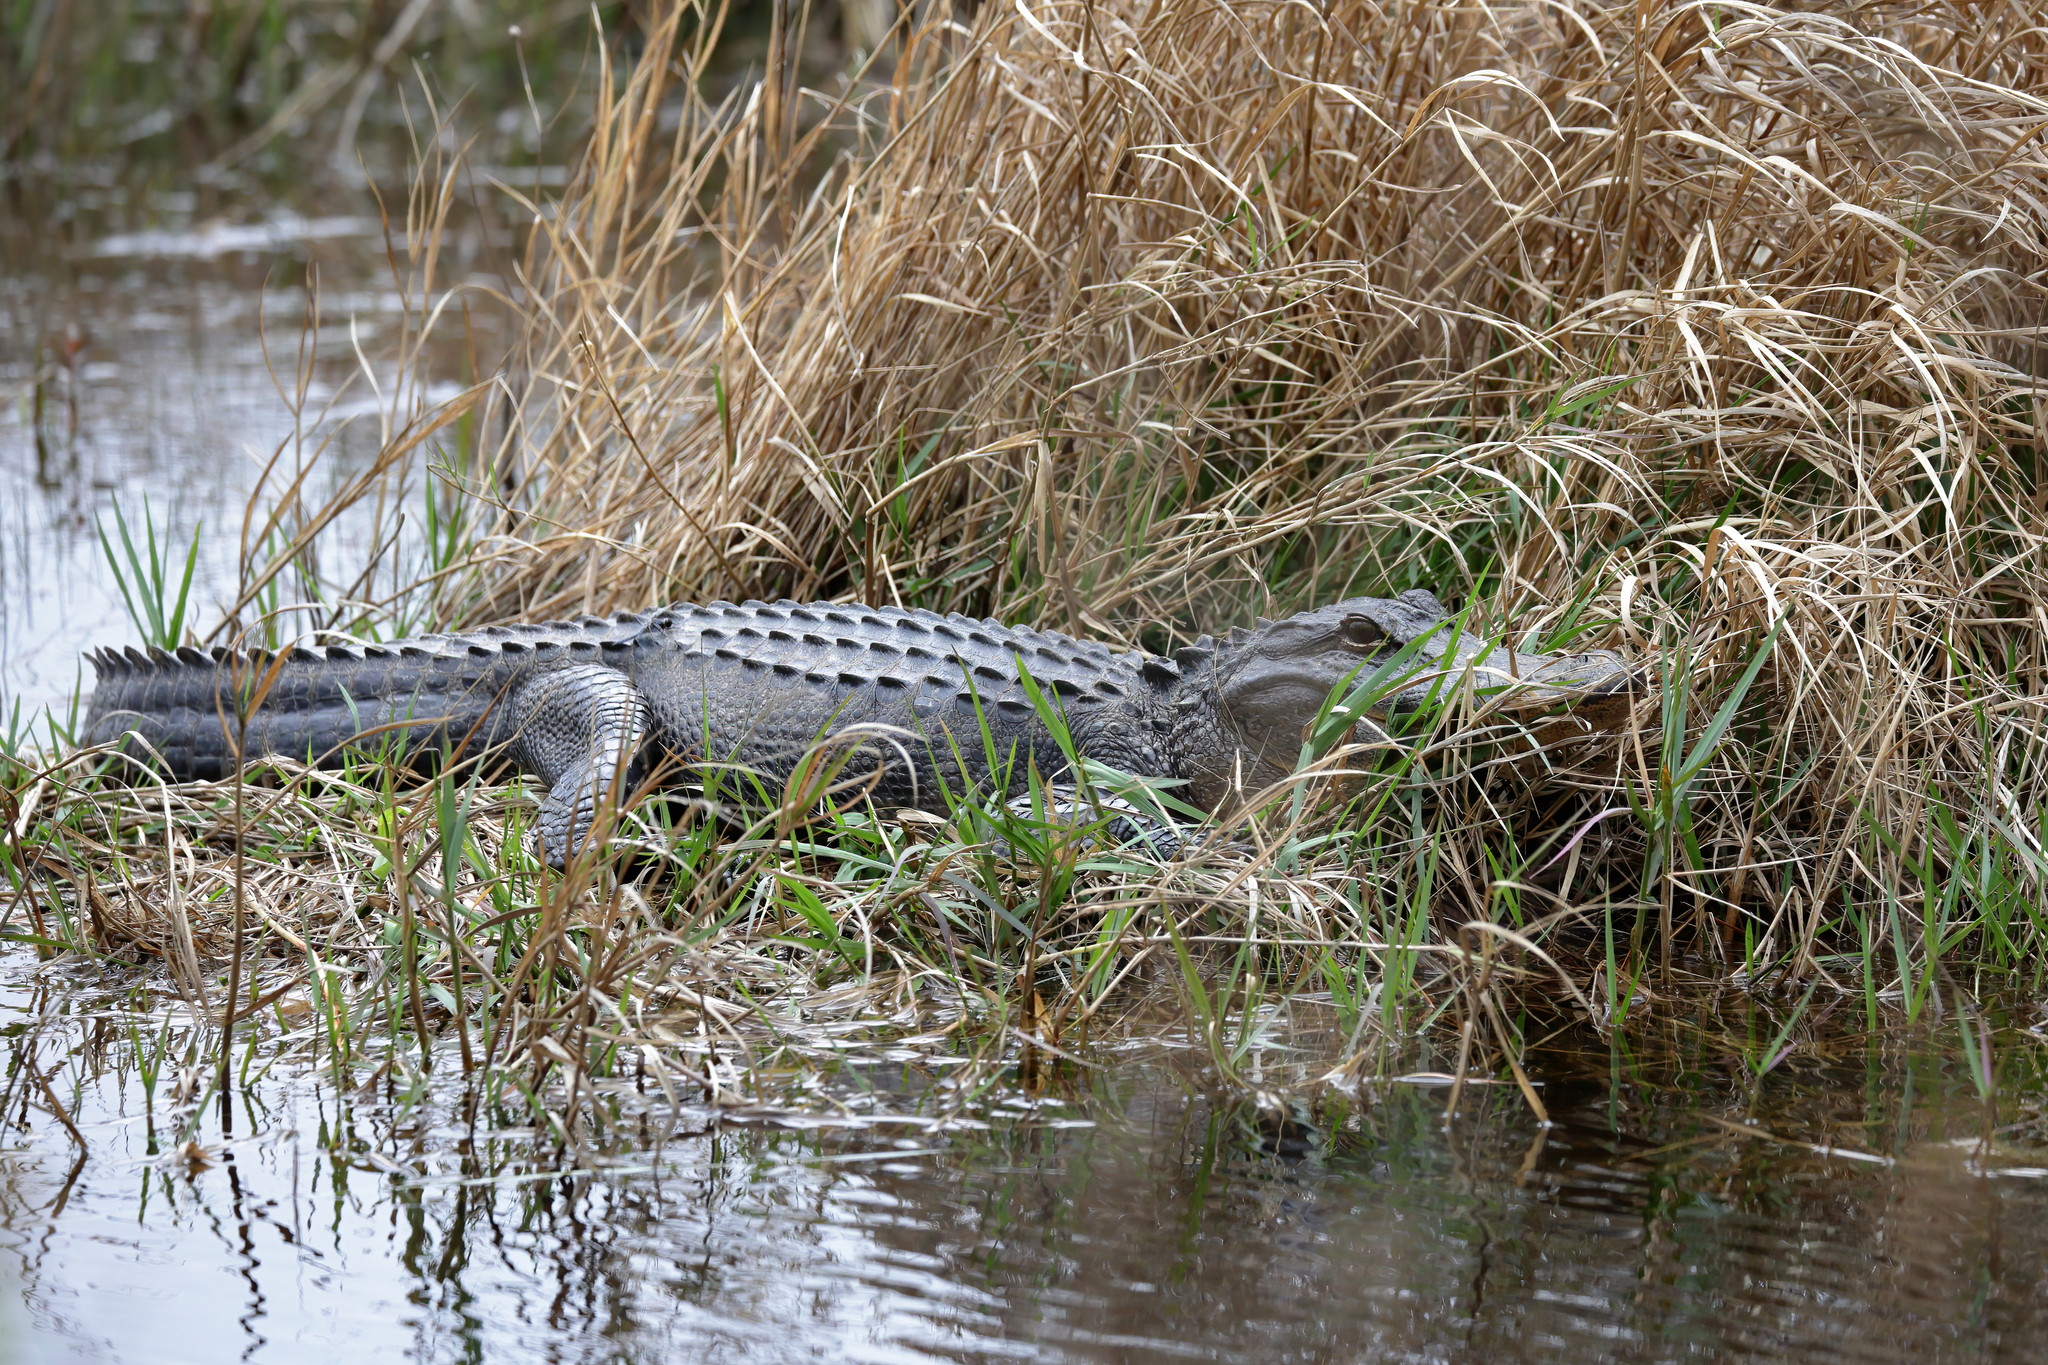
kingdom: Animalia
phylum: Chordata
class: Crocodylia
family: Alligatoridae
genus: Alligator
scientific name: Alligator mississippiensis
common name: American alligator
